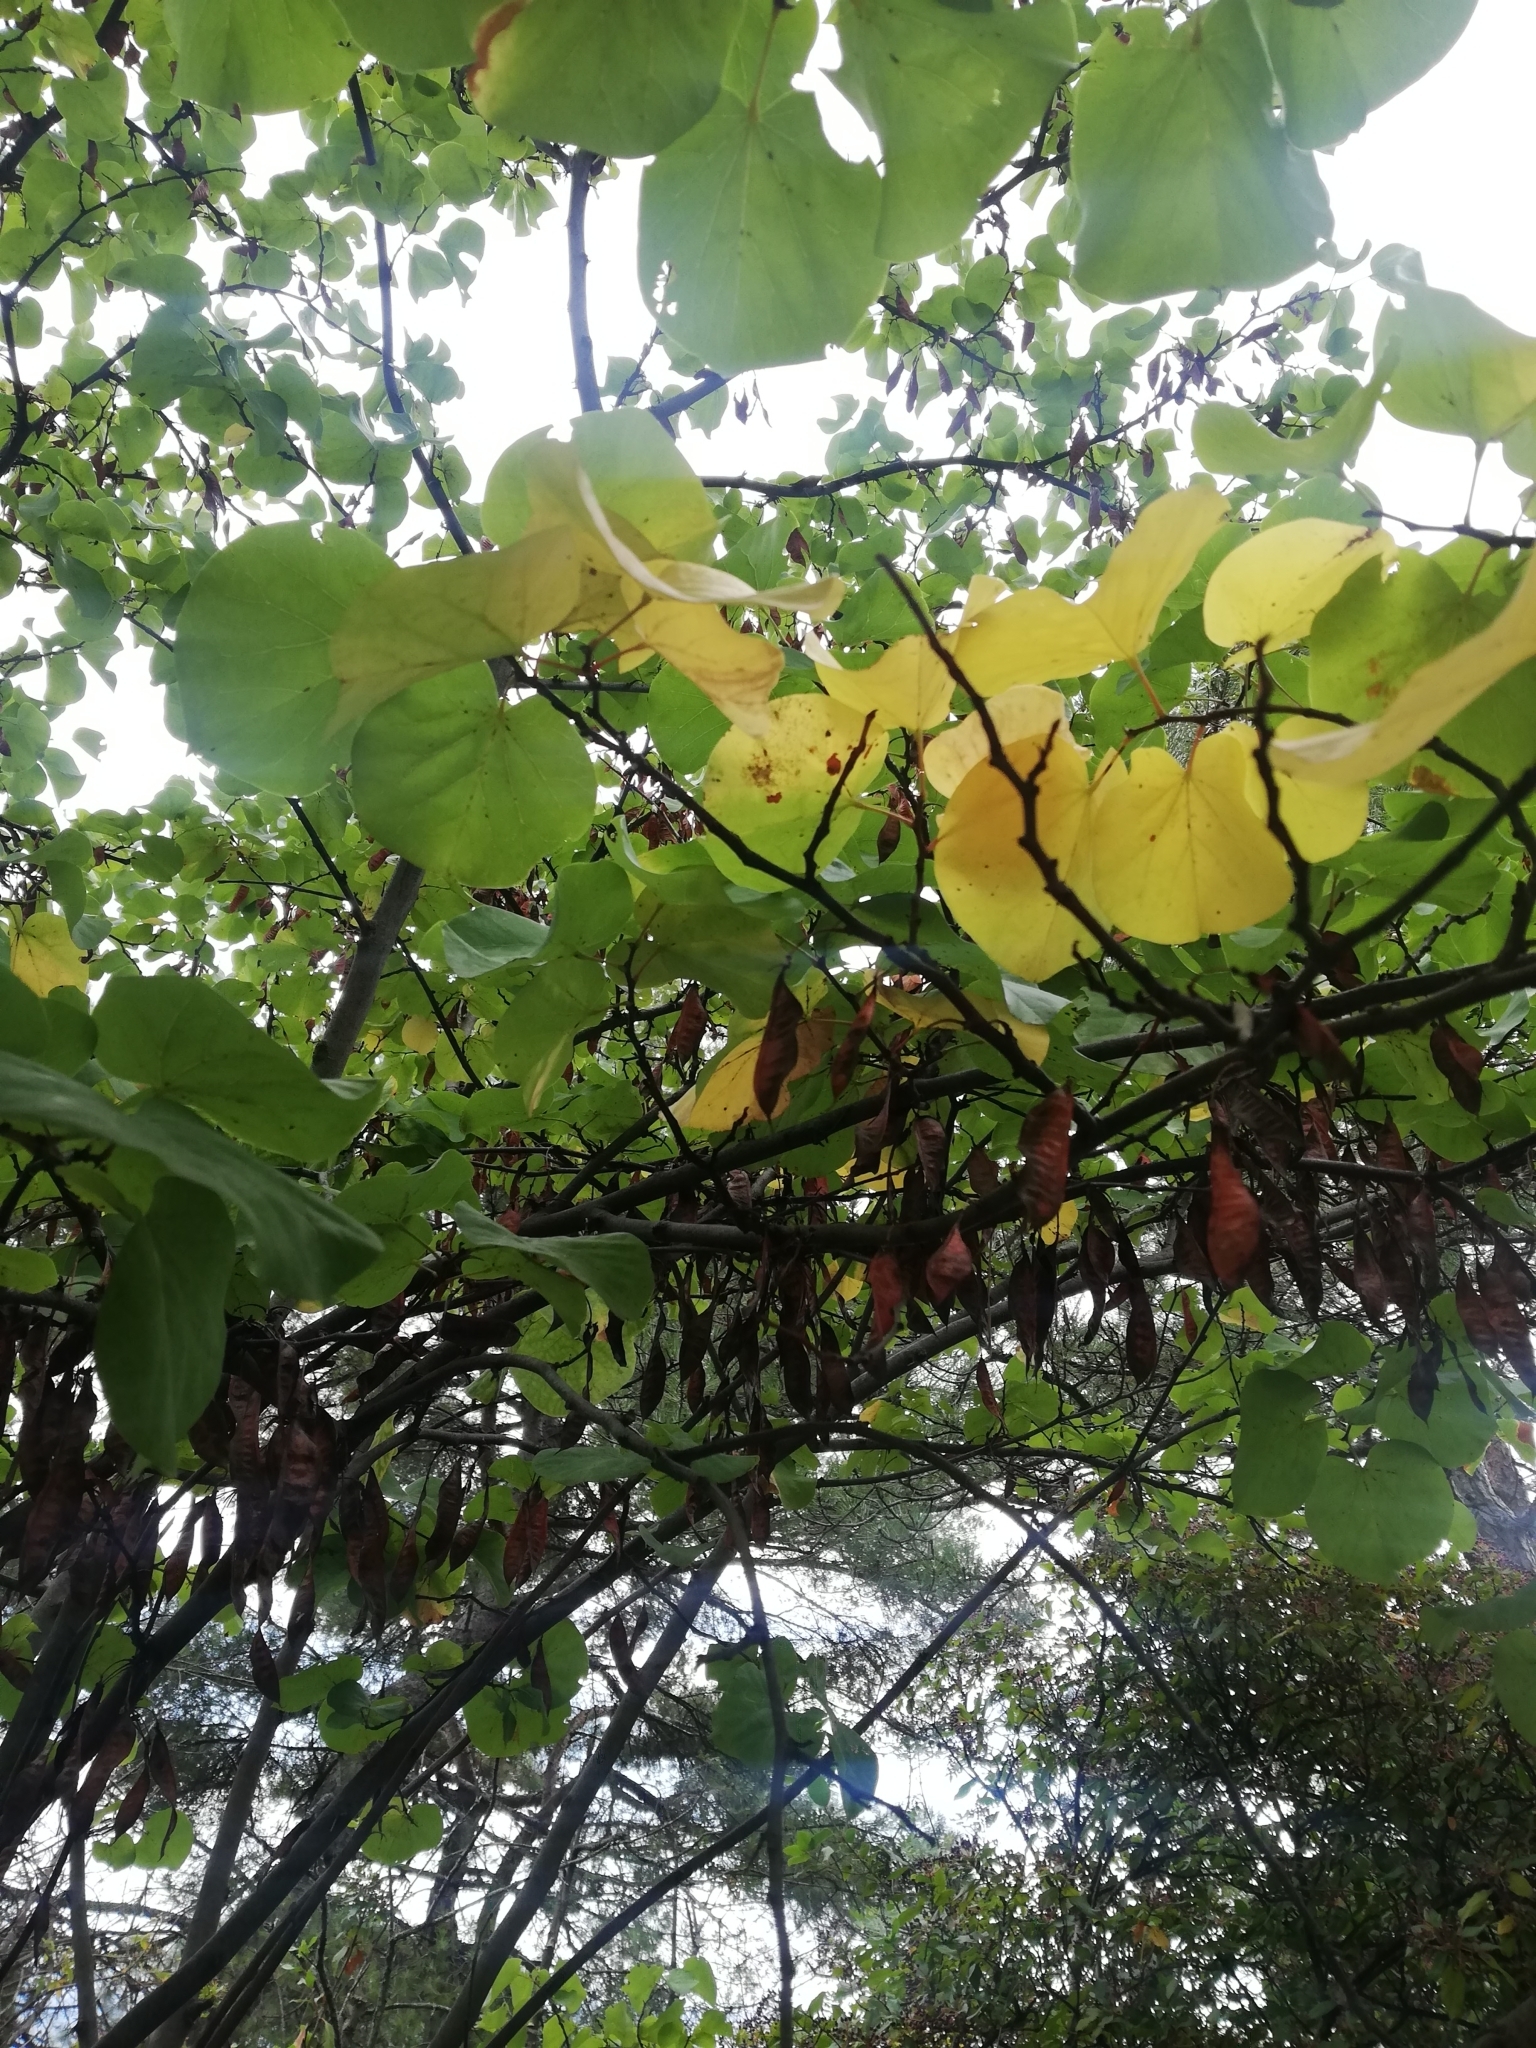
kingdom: Plantae
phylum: Tracheophyta
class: Magnoliopsida
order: Fabales
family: Fabaceae
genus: Cercis
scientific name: Cercis siliquastrum
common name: Judas tree
